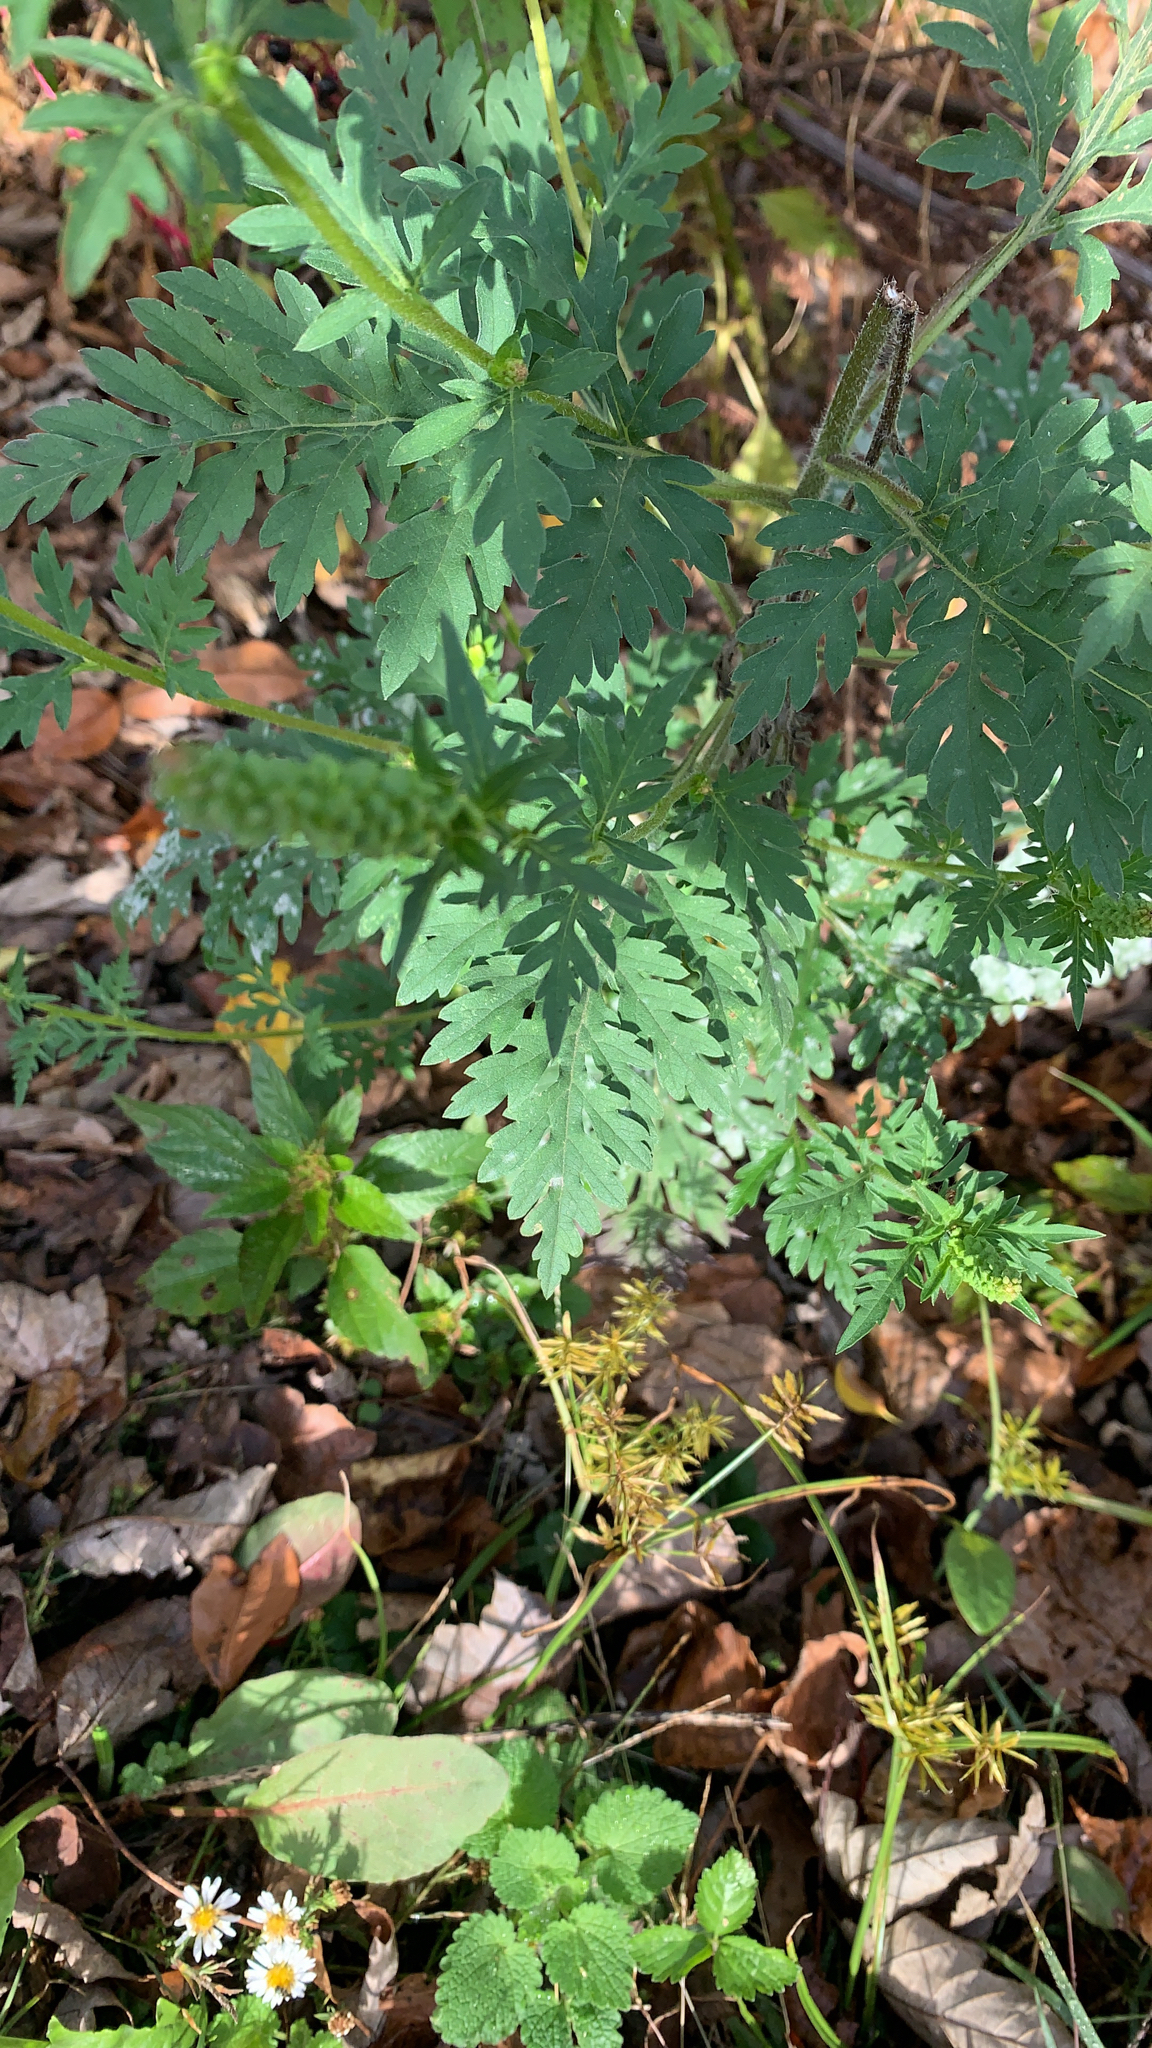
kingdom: Plantae
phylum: Tracheophyta
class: Magnoliopsida
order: Asterales
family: Asteraceae
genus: Ambrosia
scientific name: Ambrosia artemisiifolia
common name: Annual ragweed
